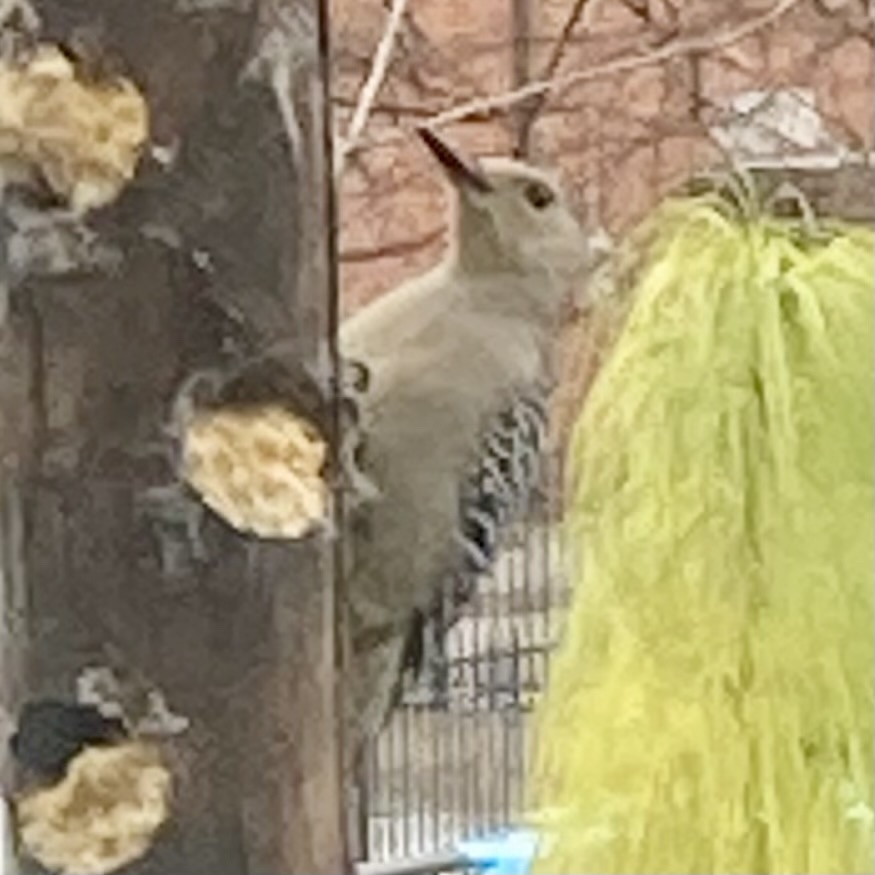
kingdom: Animalia
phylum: Chordata
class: Aves
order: Piciformes
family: Picidae
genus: Melanerpes
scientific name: Melanerpes carolinus
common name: Red-bellied woodpecker
